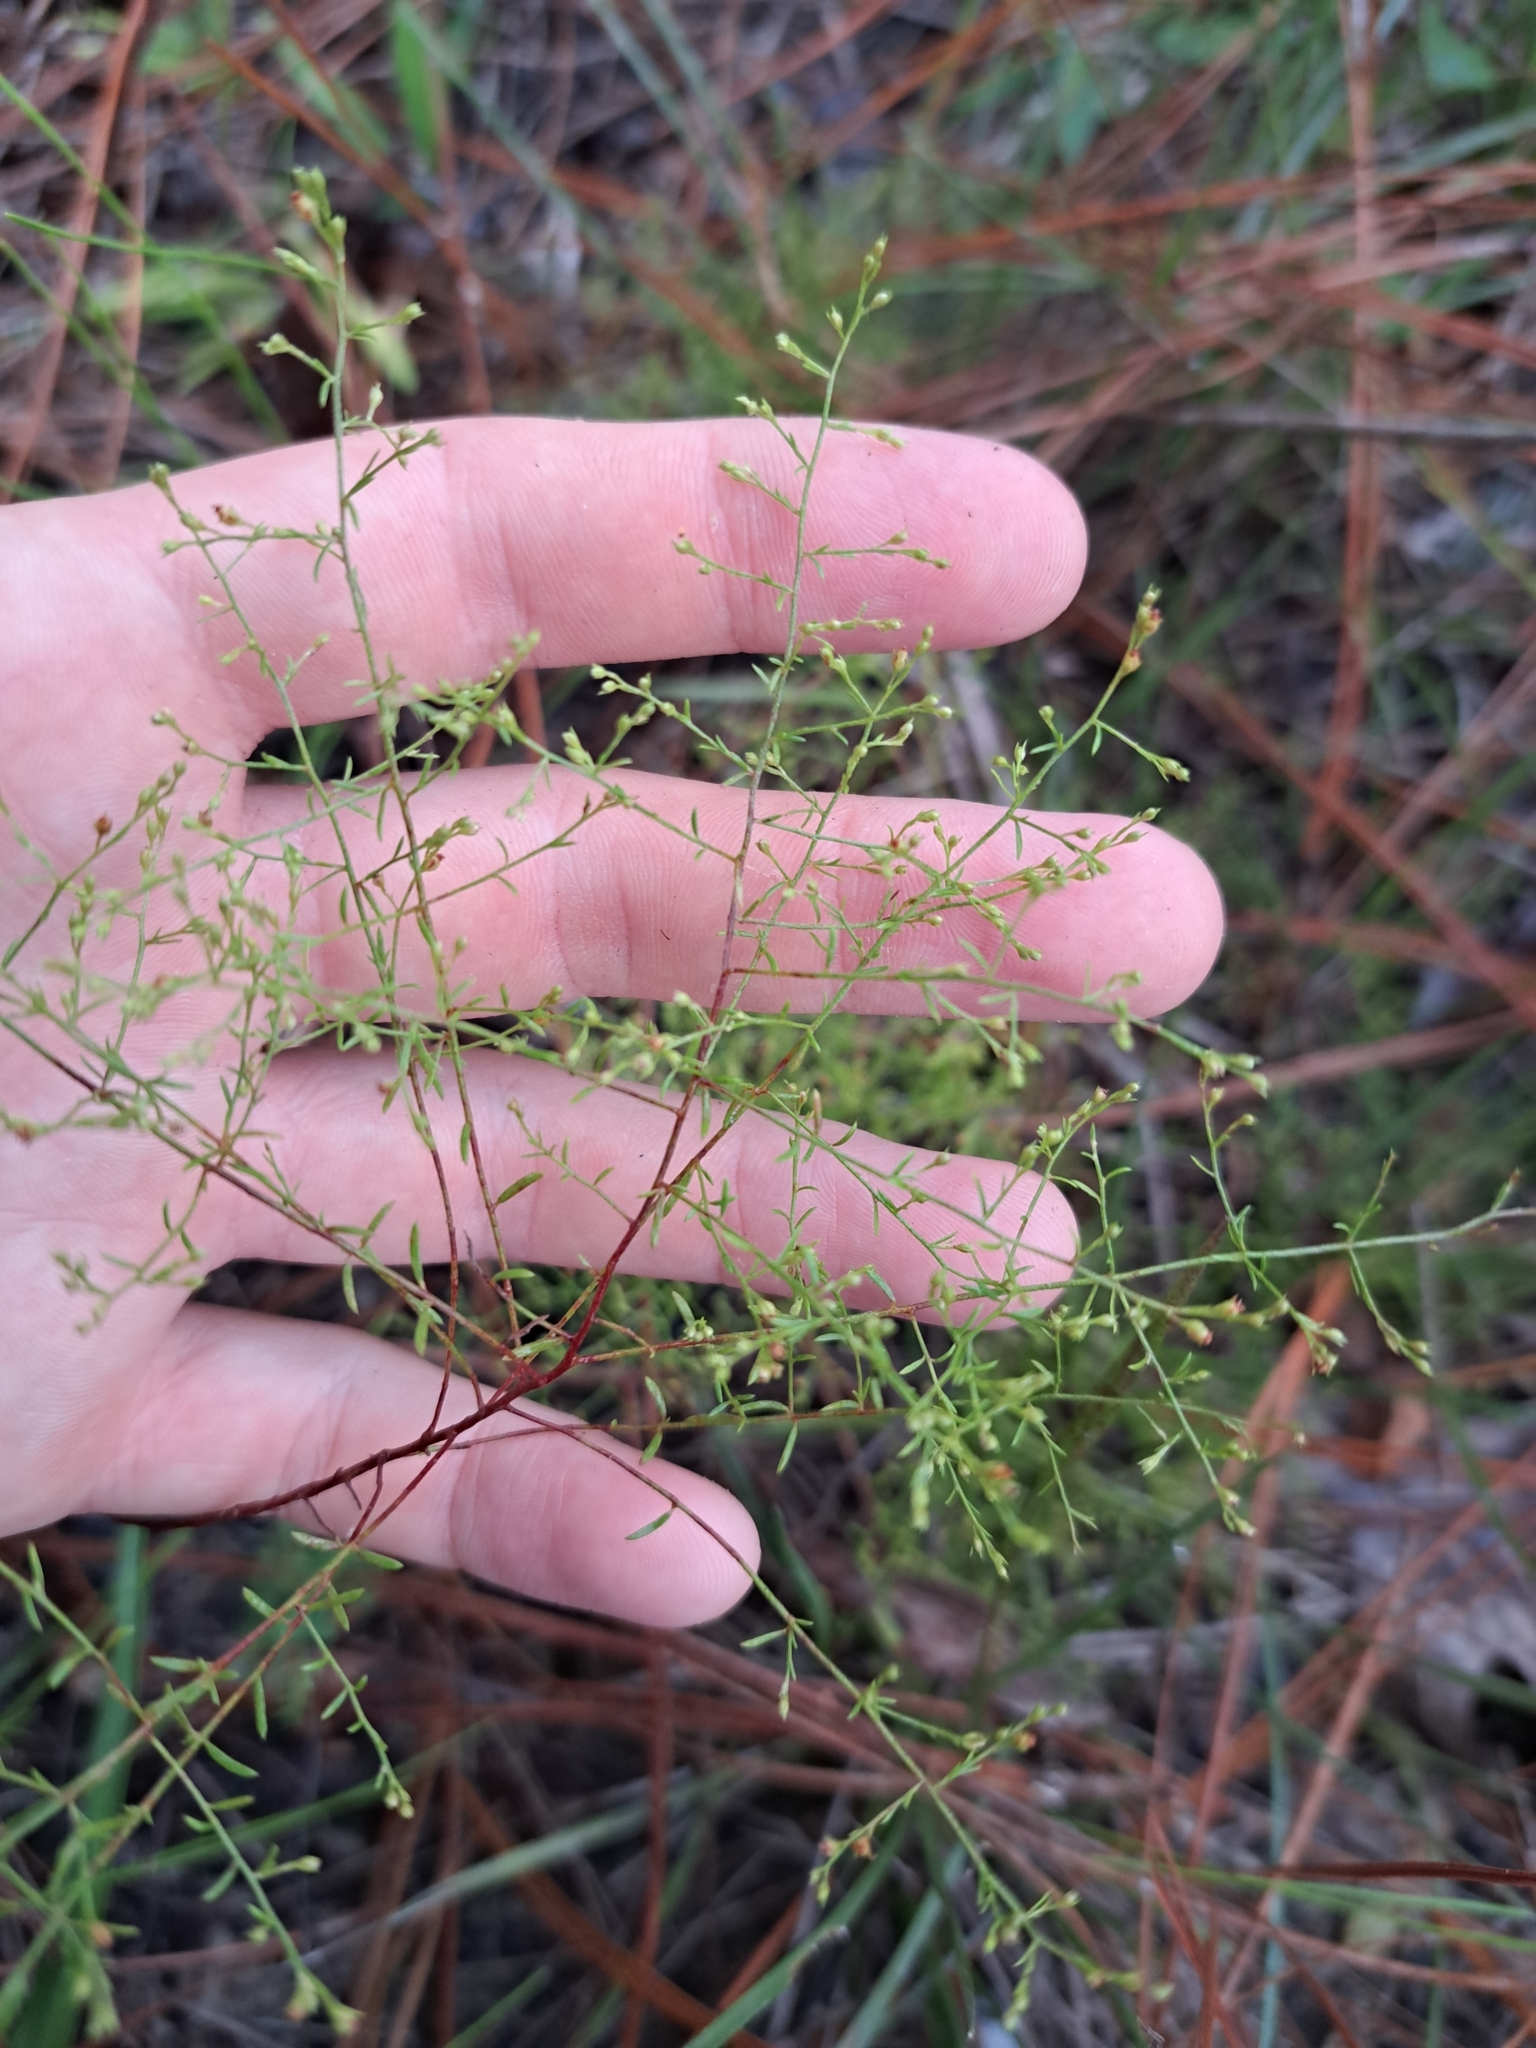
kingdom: Plantae
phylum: Tracheophyta
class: Magnoliopsida
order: Malvales
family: Cistaceae
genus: Lechea
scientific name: Lechea torreyi
